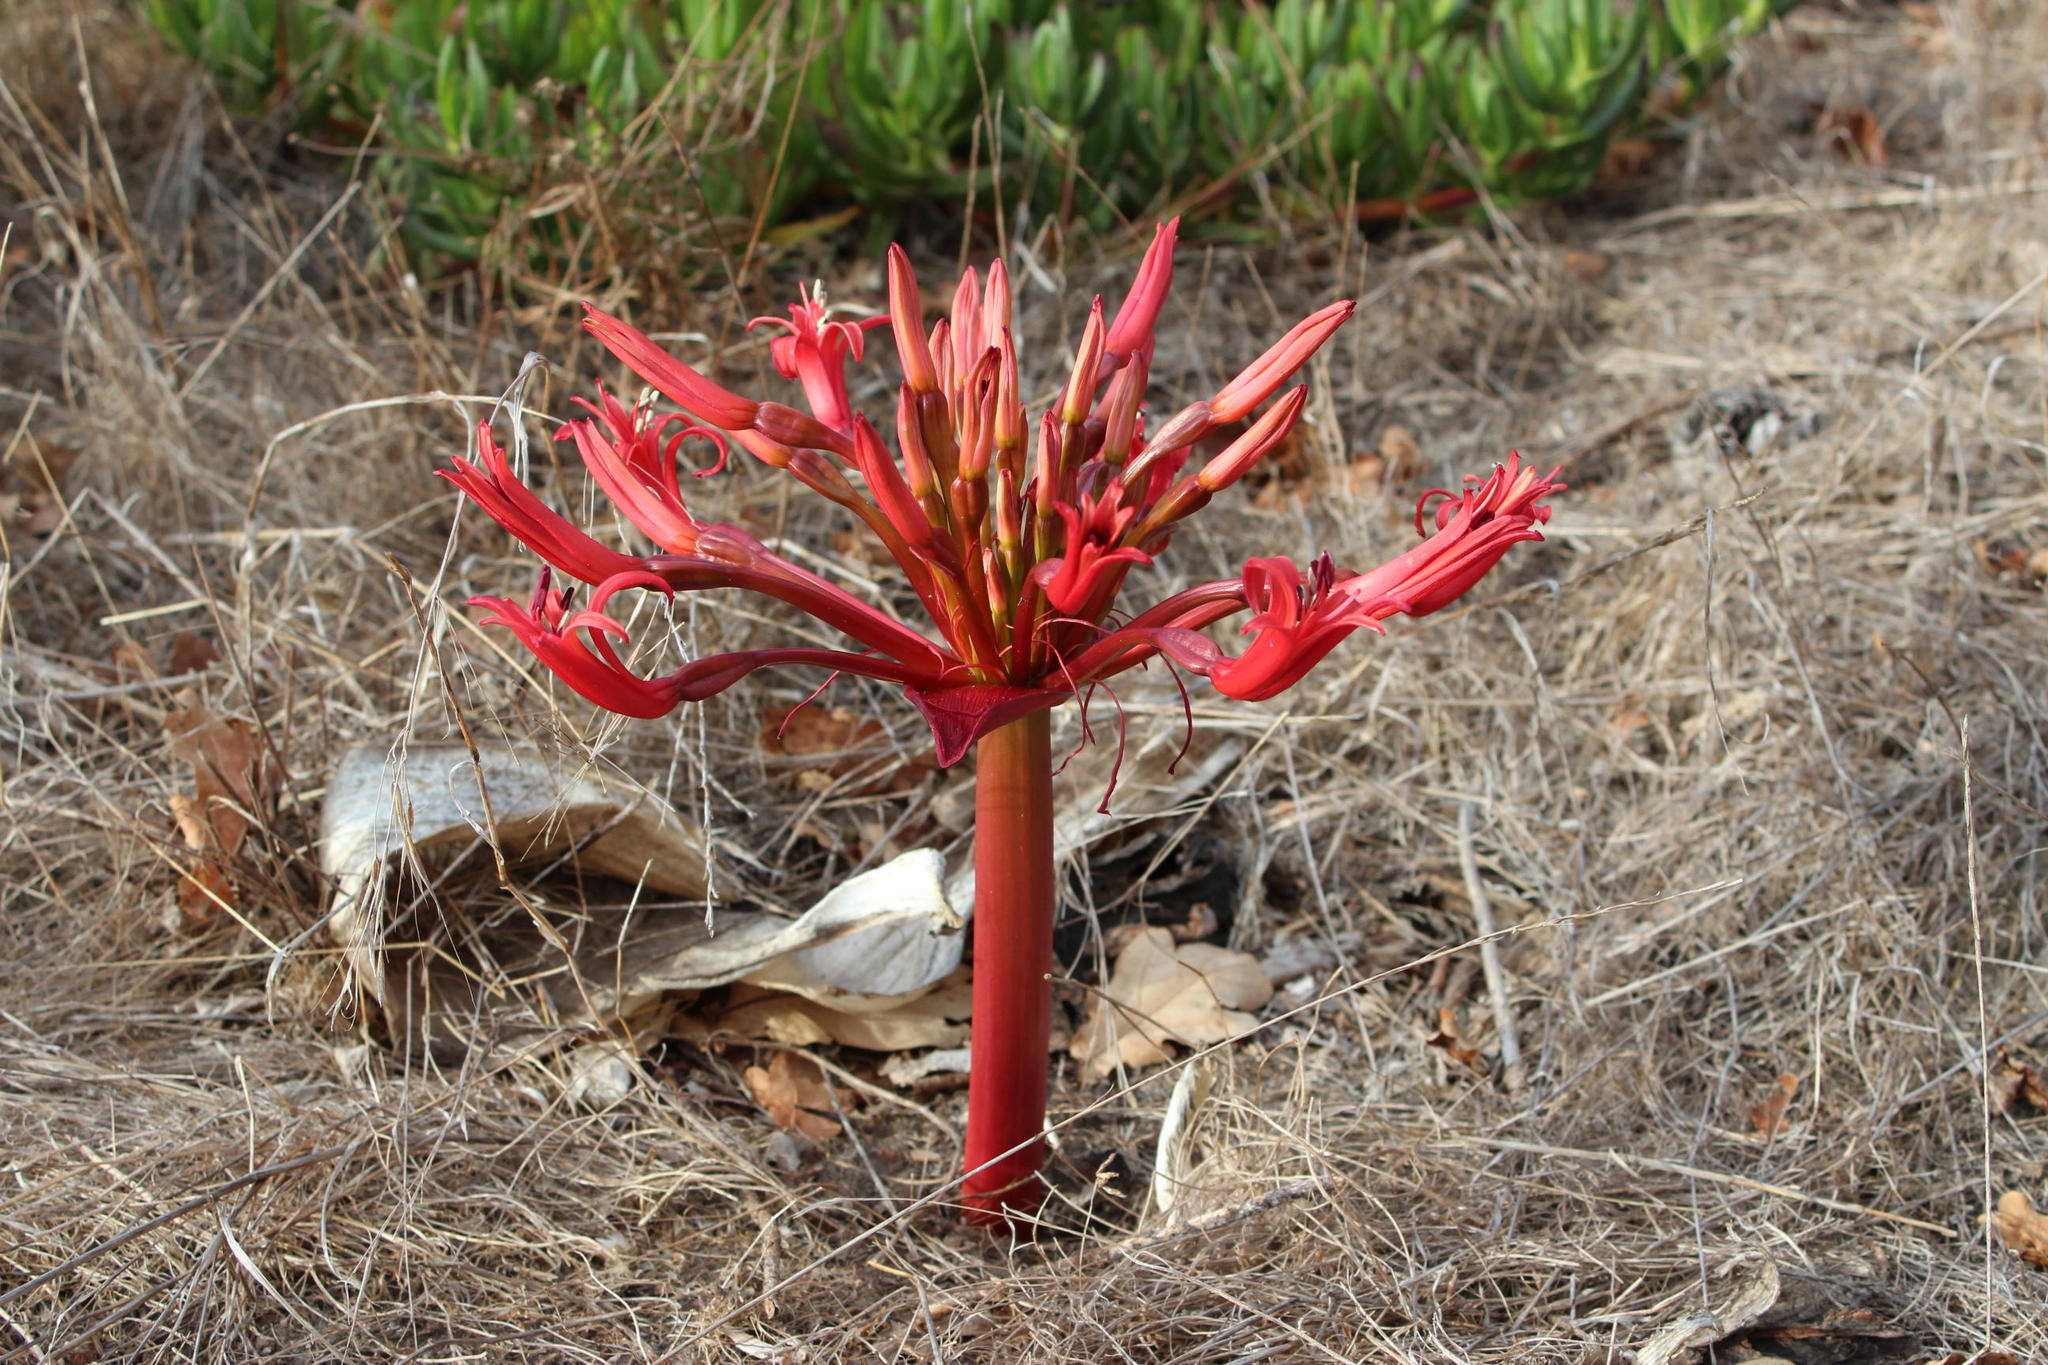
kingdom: Plantae
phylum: Tracheophyta
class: Liliopsida
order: Asparagales
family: Amaryllidaceae
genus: Brunsvigia
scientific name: Brunsvigia orientalis
